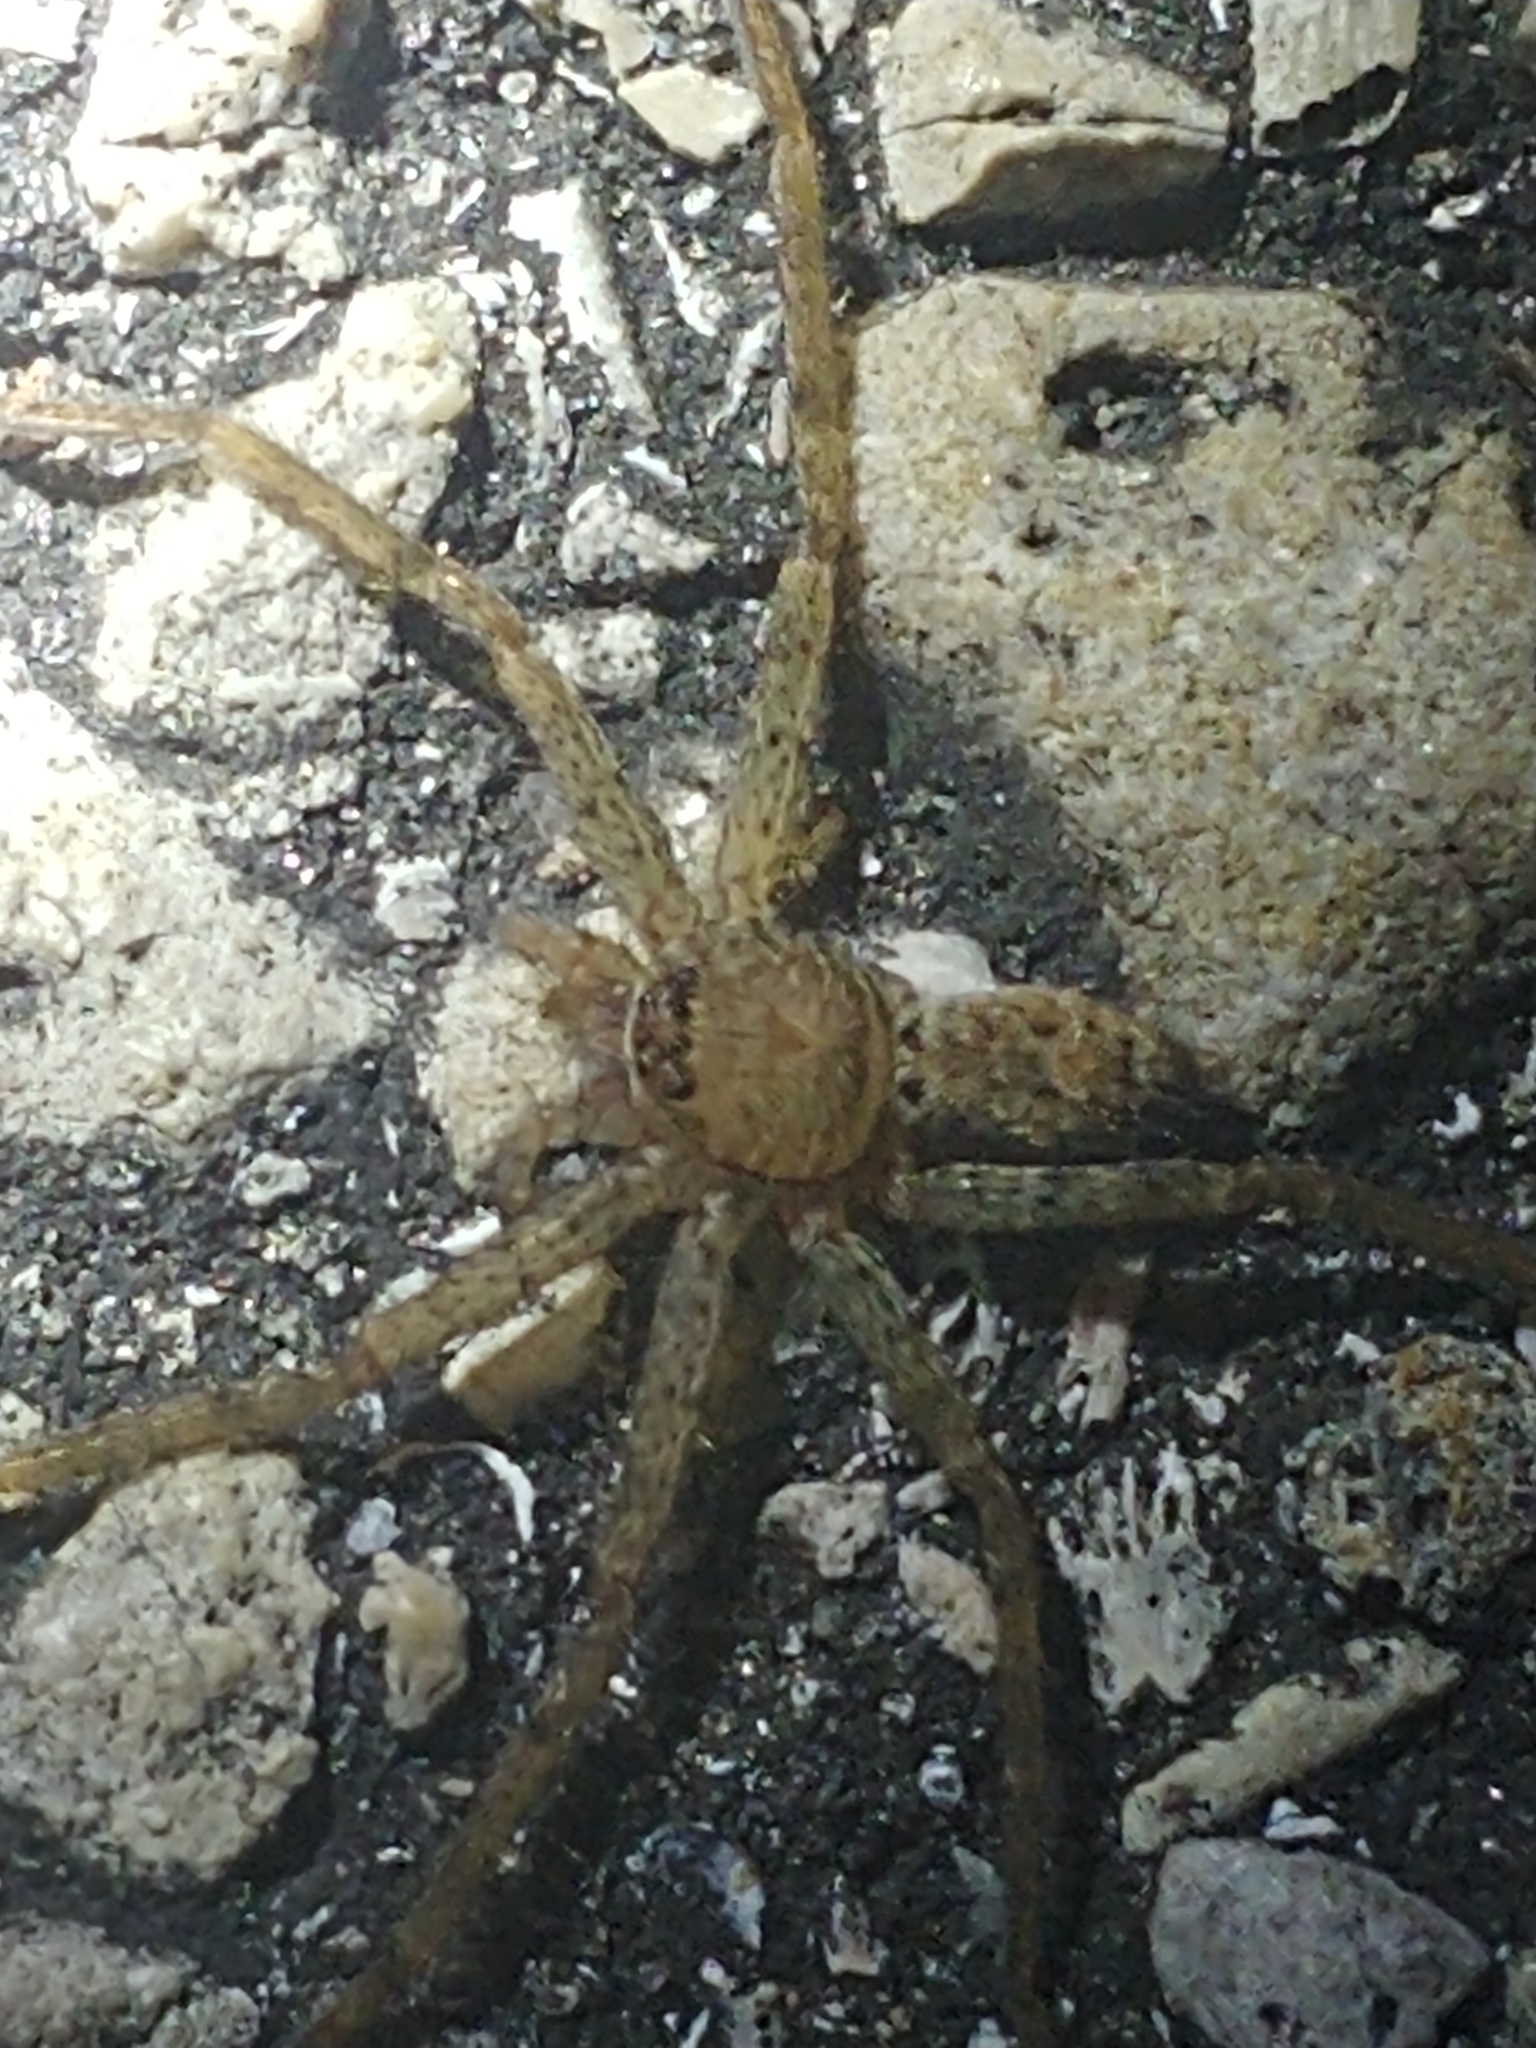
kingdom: Animalia
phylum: Arthropoda
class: Arachnida
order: Araneae
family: Sparassidae
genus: Heteropoda
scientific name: Heteropoda venatoria
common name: Huntsman spider
